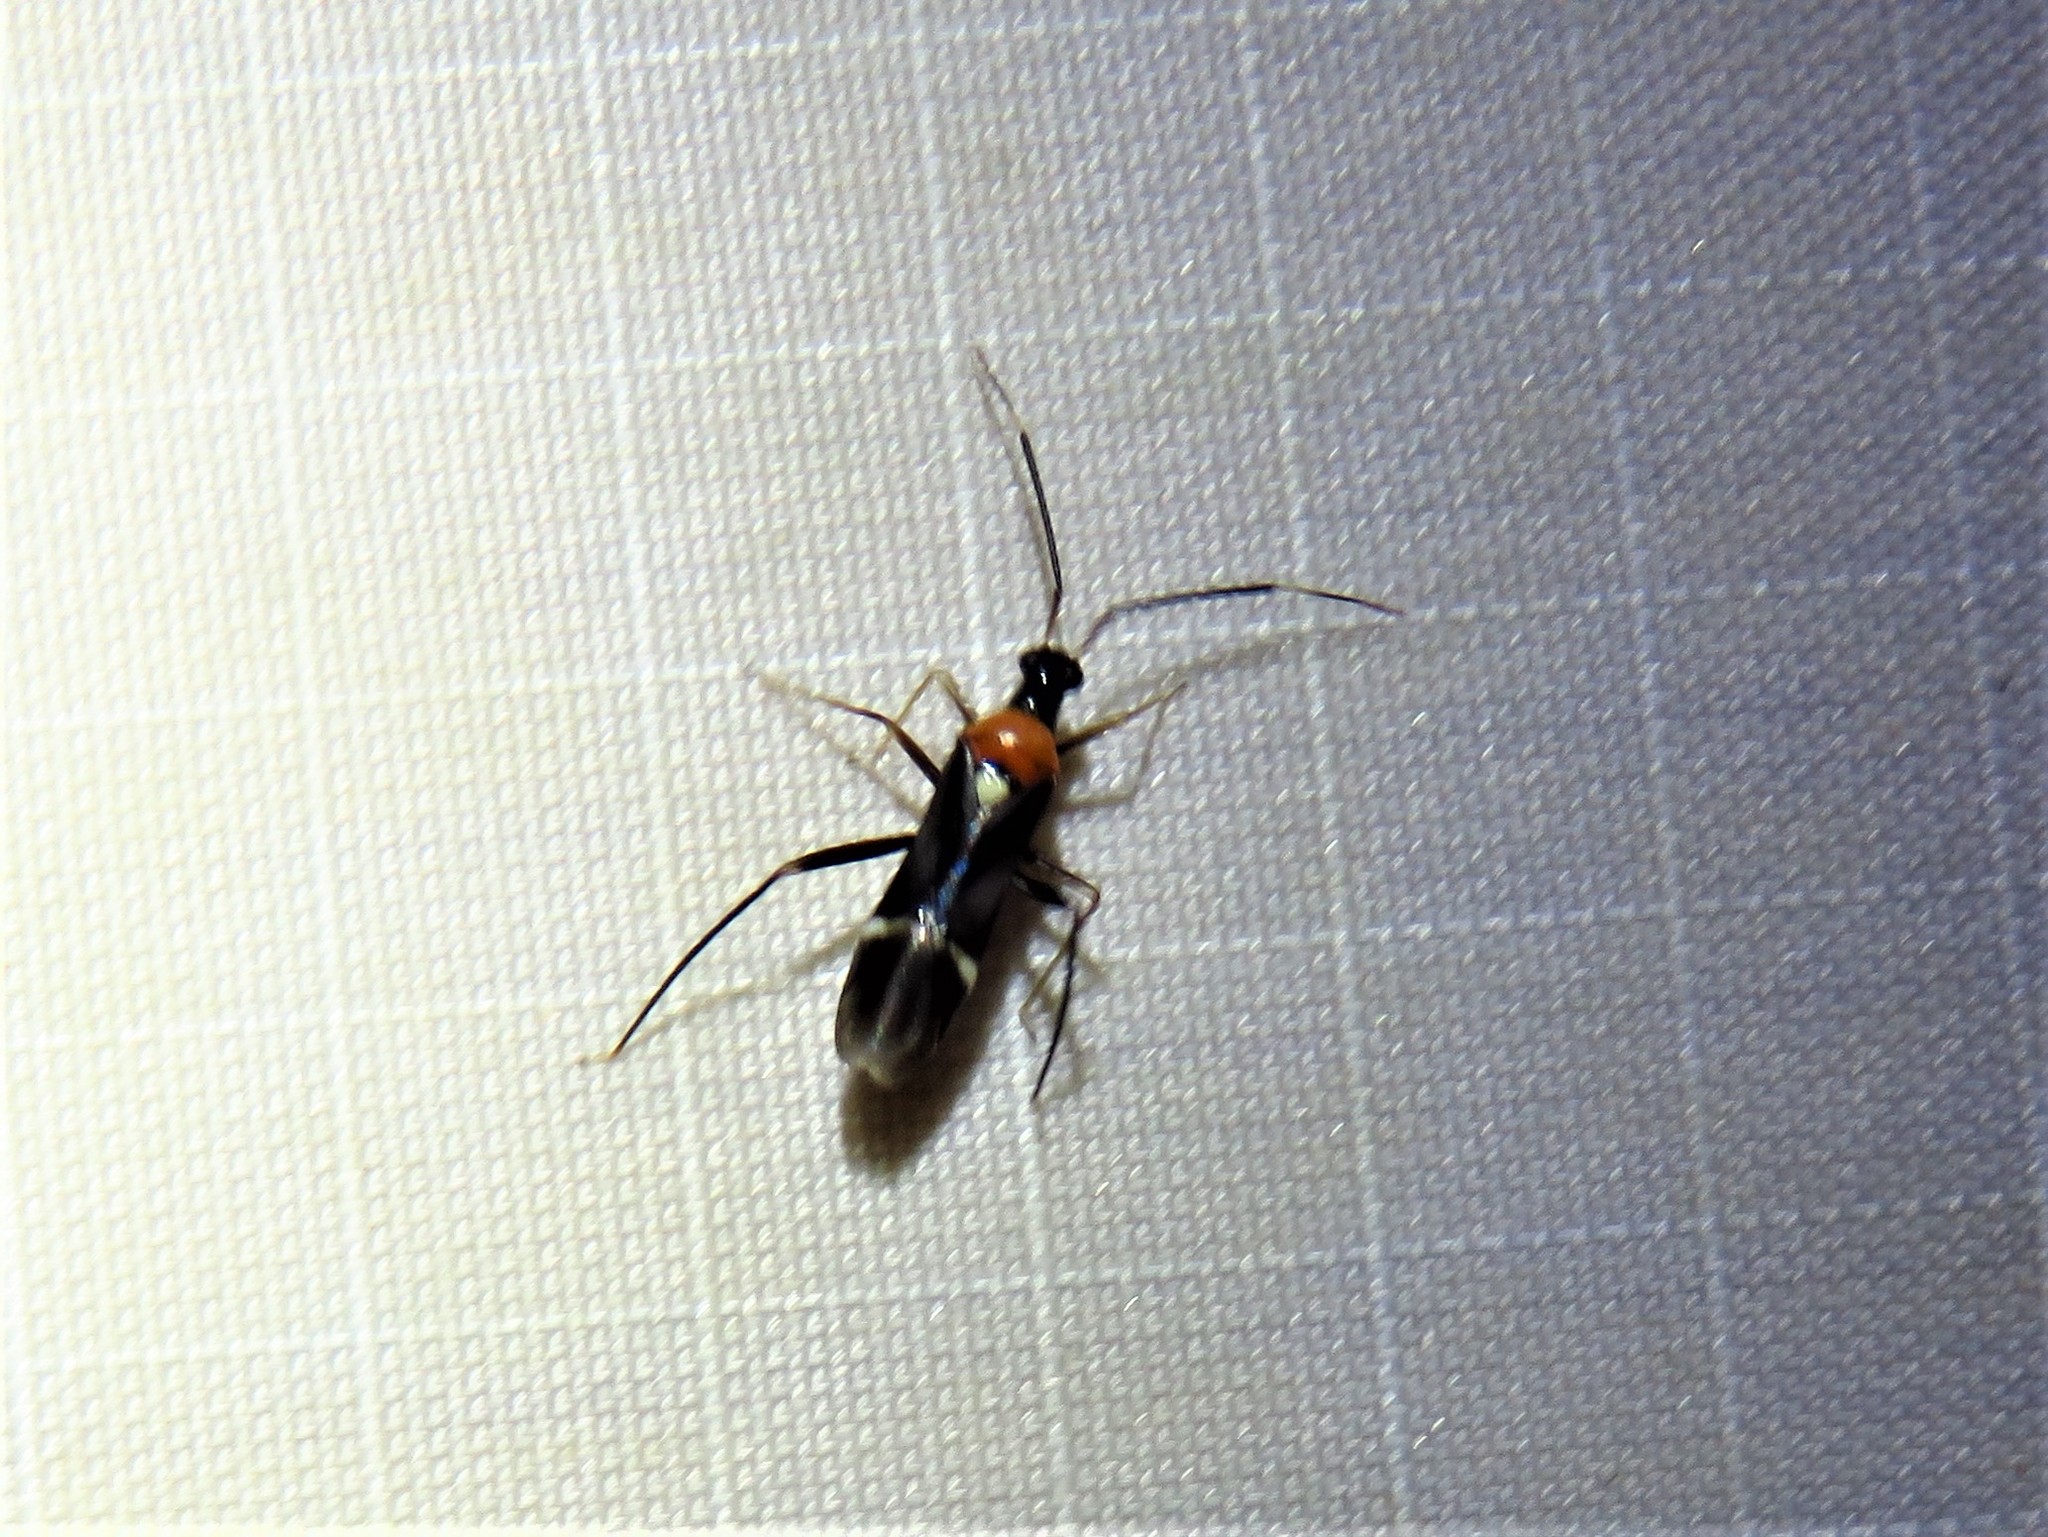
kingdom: Animalia
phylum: Arthropoda
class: Insecta
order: Hemiptera
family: Miridae
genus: Pseudoxenetus
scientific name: Pseudoxenetus regalis
